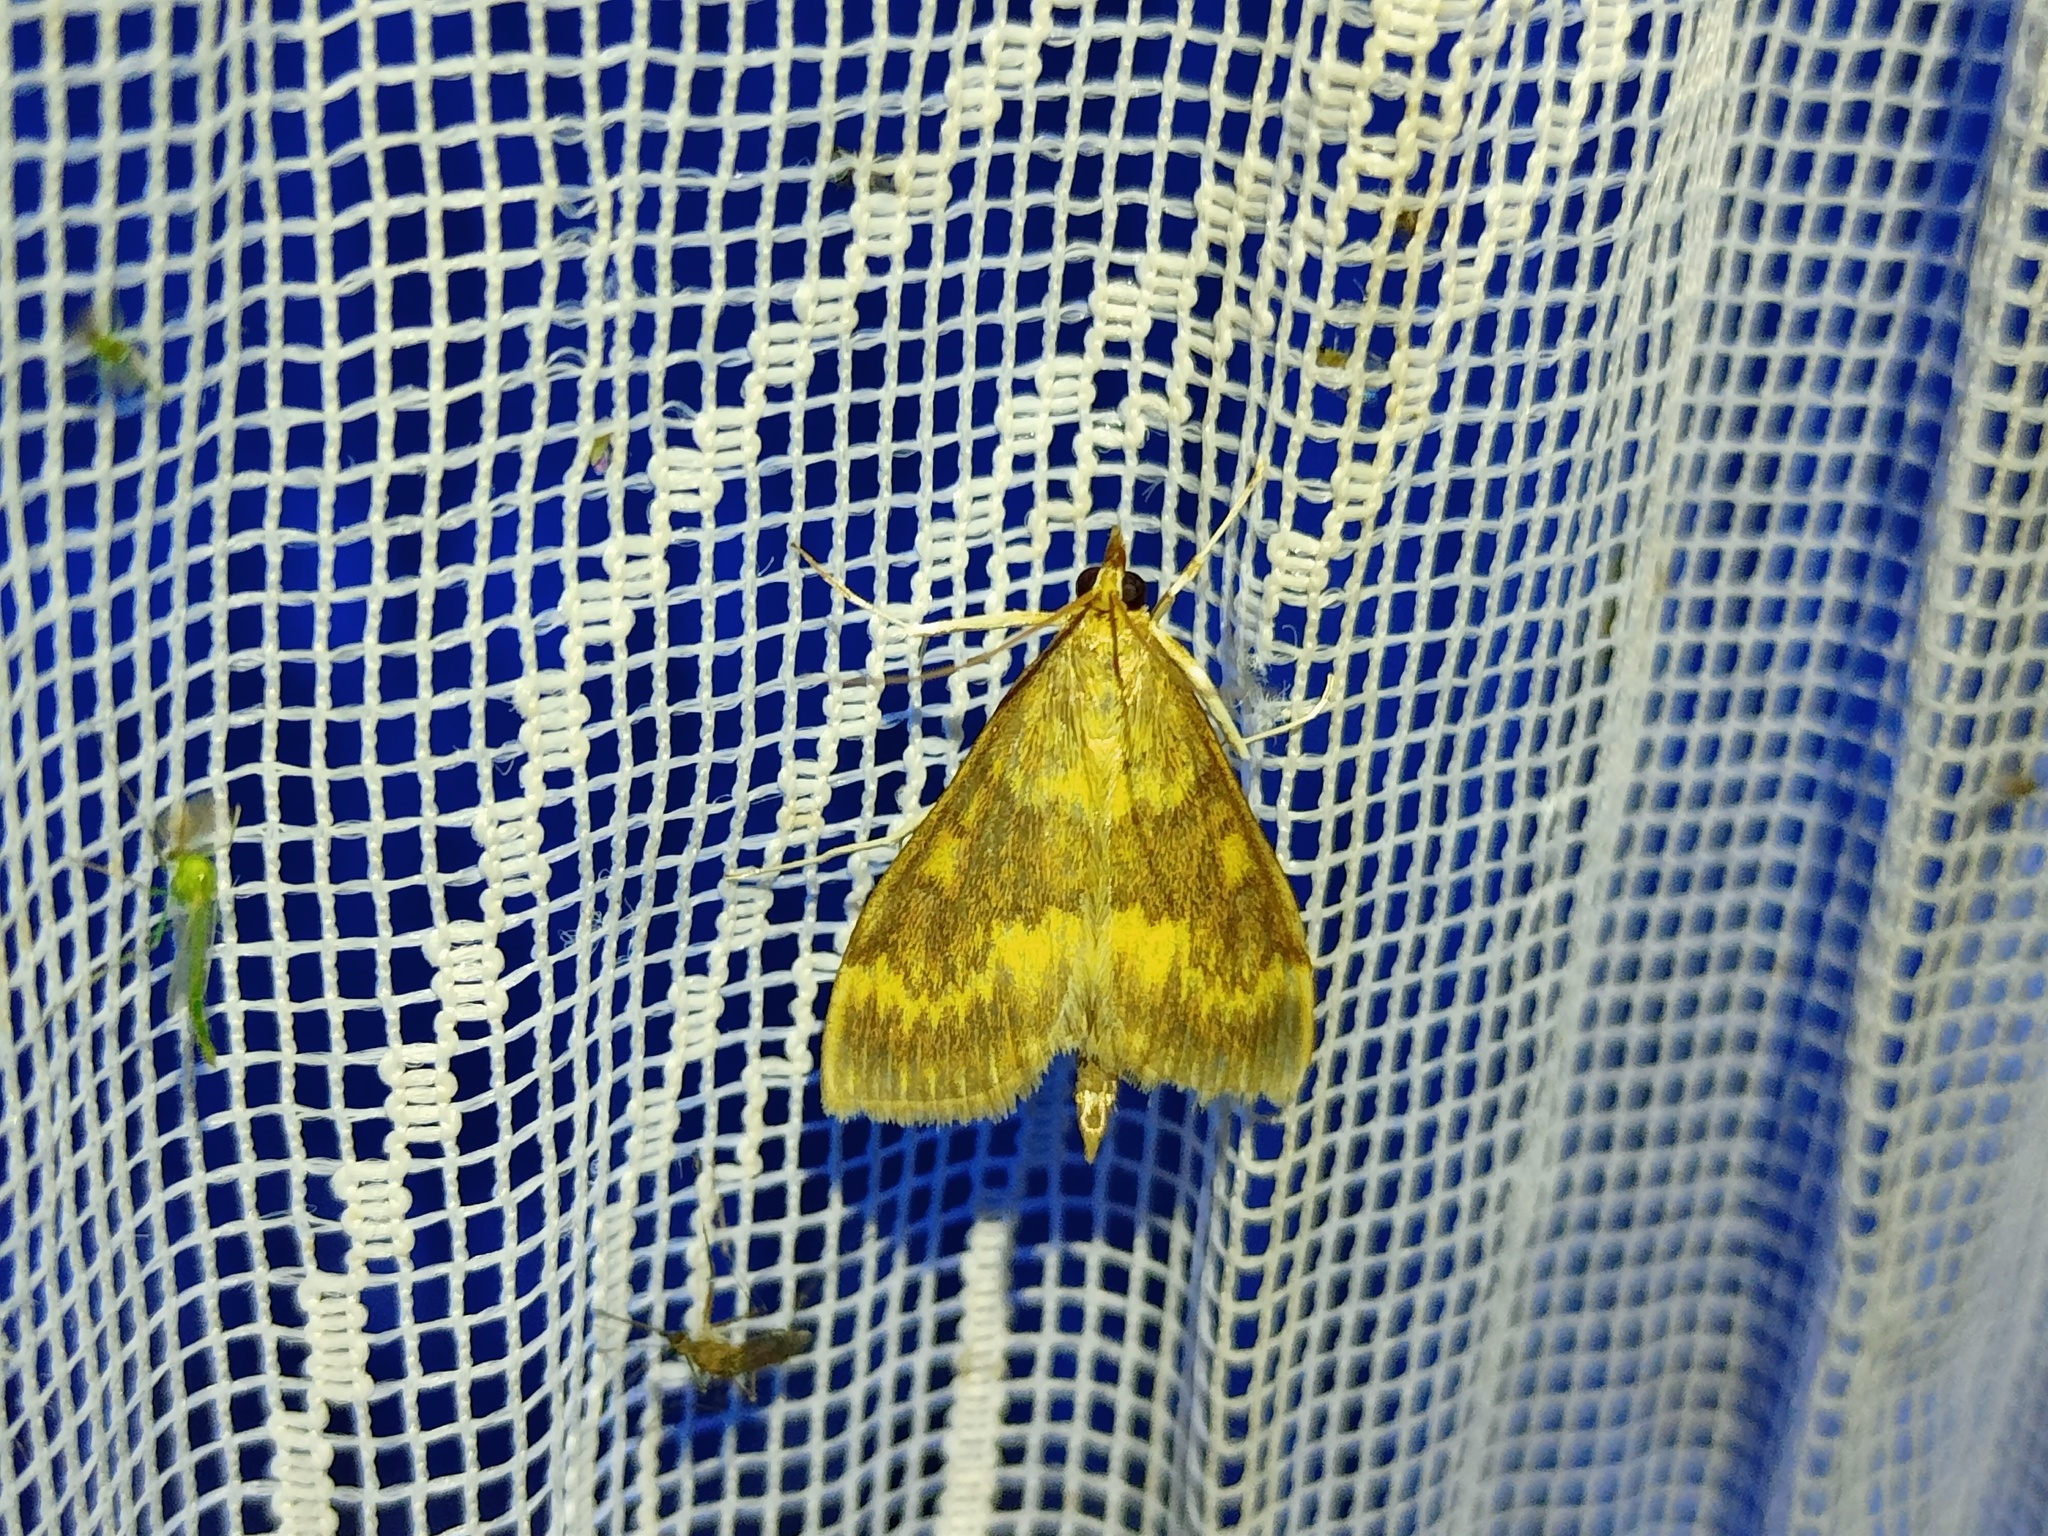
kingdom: Animalia
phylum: Arthropoda
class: Insecta
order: Lepidoptera
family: Crambidae
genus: Ostrinia
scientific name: Ostrinia nubilalis
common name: European corn borer
